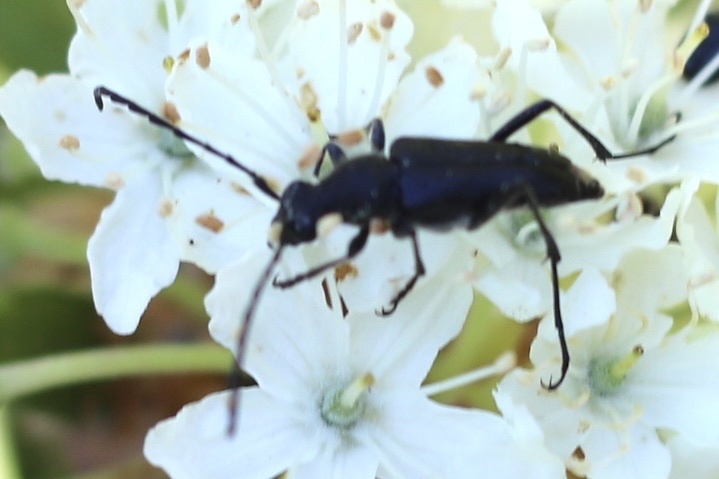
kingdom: Animalia
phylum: Arthropoda
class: Insecta
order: Coleoptera
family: Cerambycidae
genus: Anastrangalia
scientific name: Anastrangalia laetifica
